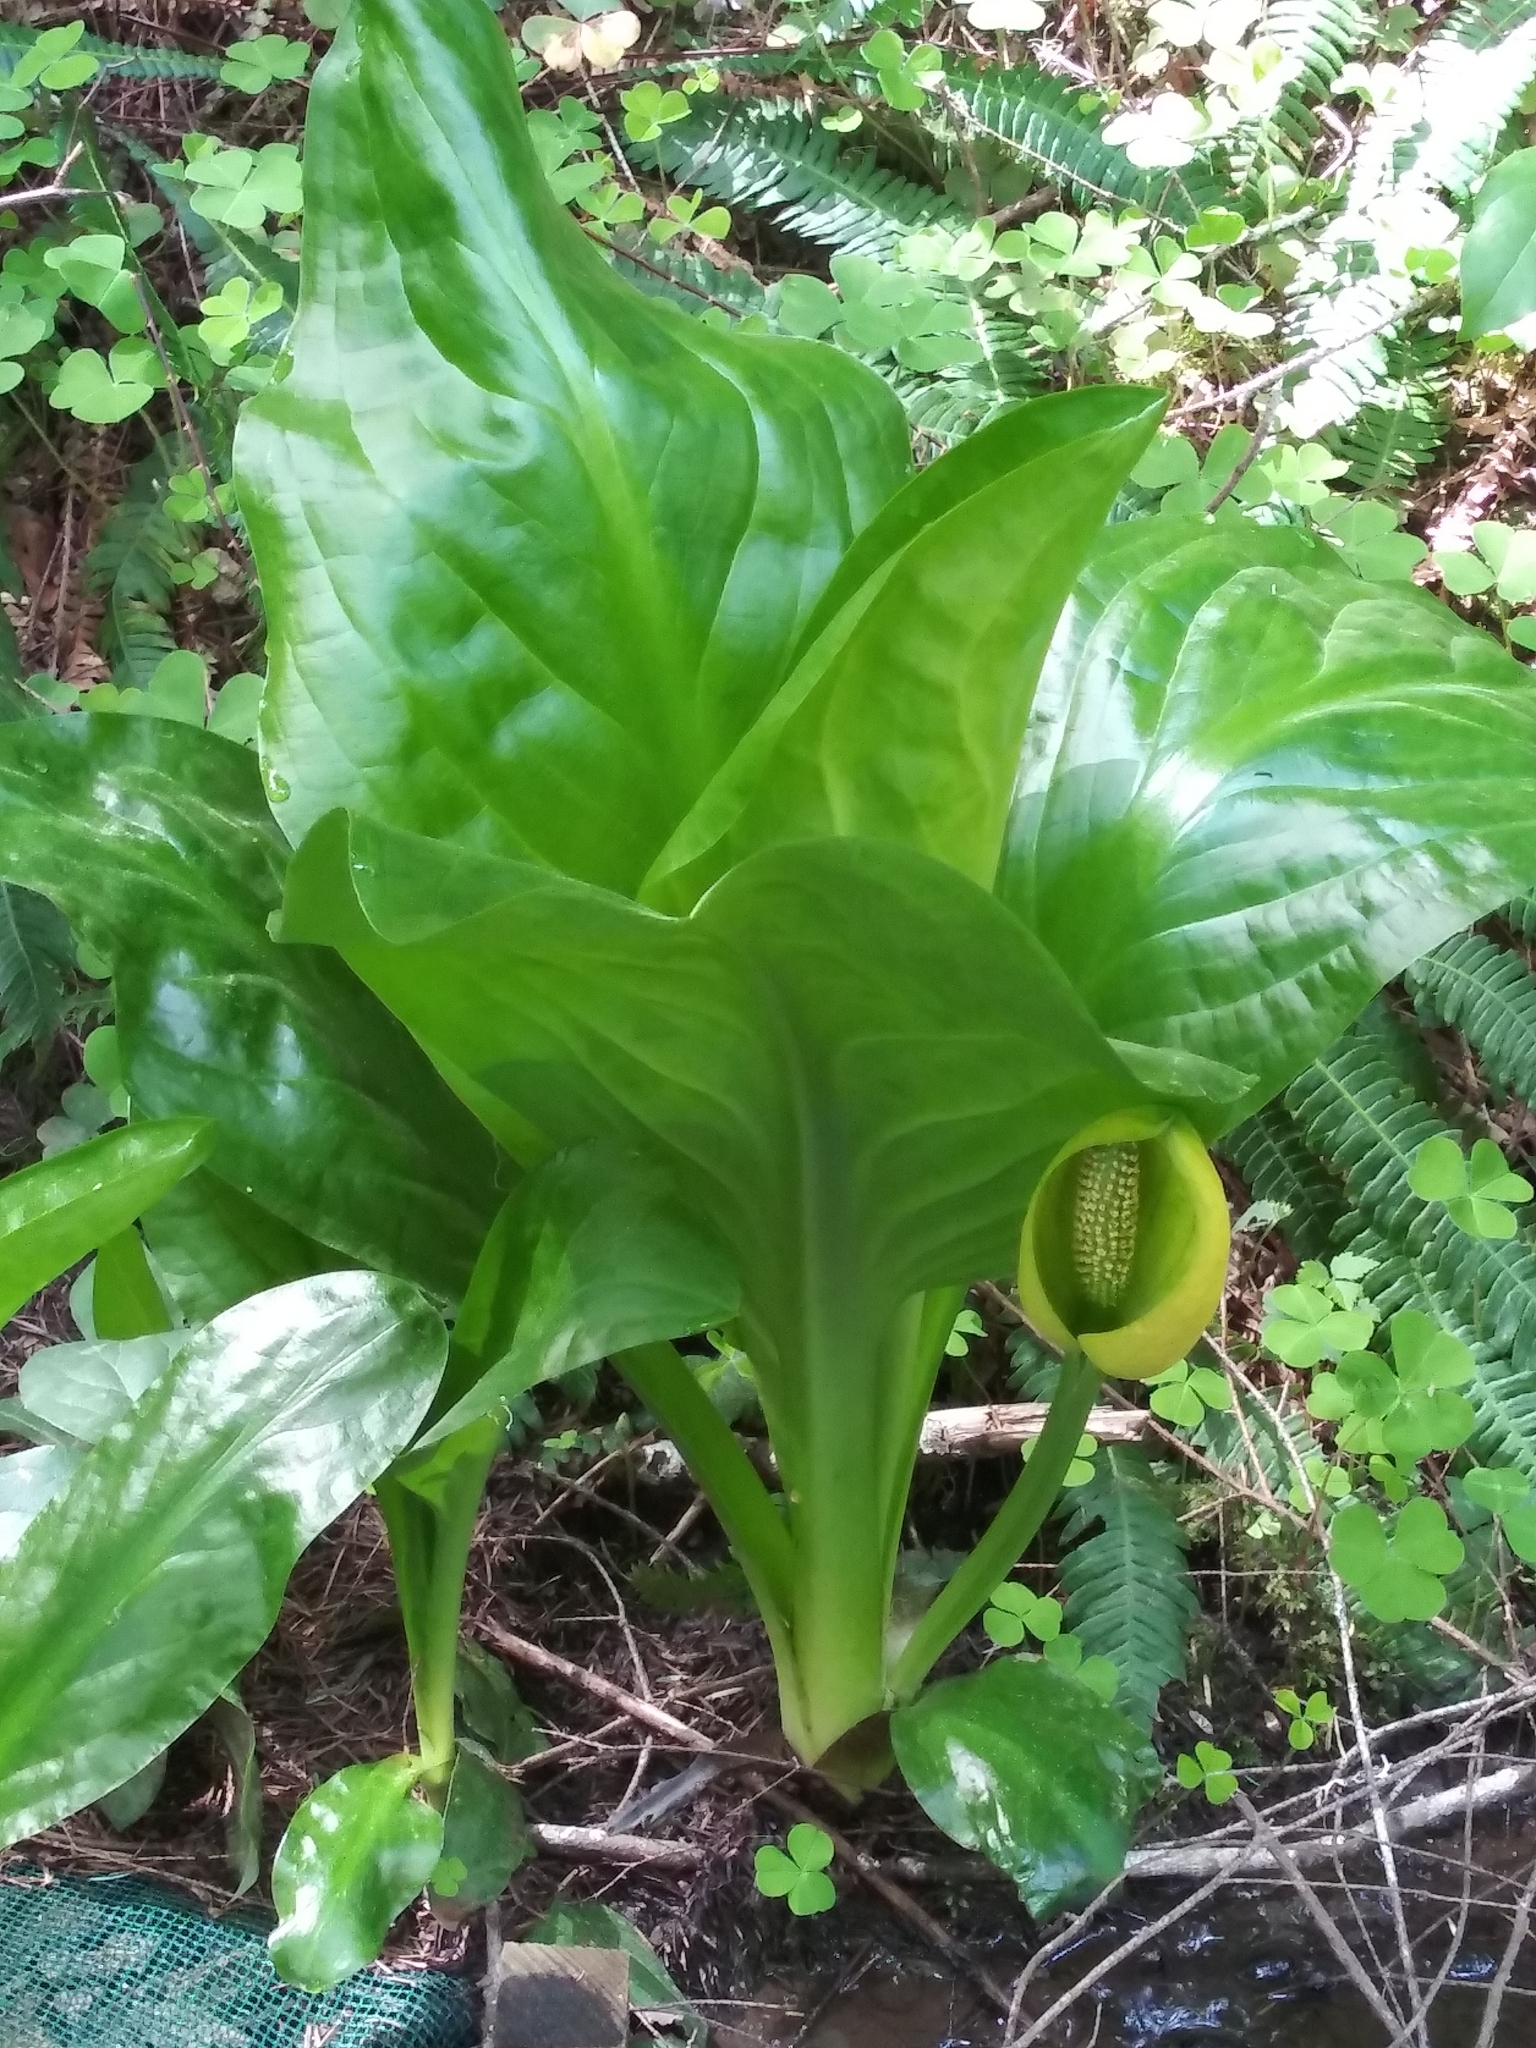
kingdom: Plantae
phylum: Tracheophyta
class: Liliopsida
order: Alismatales
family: Araceae
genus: Lysichiton
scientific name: Lysichiton americanus
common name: American skunk cabbage
